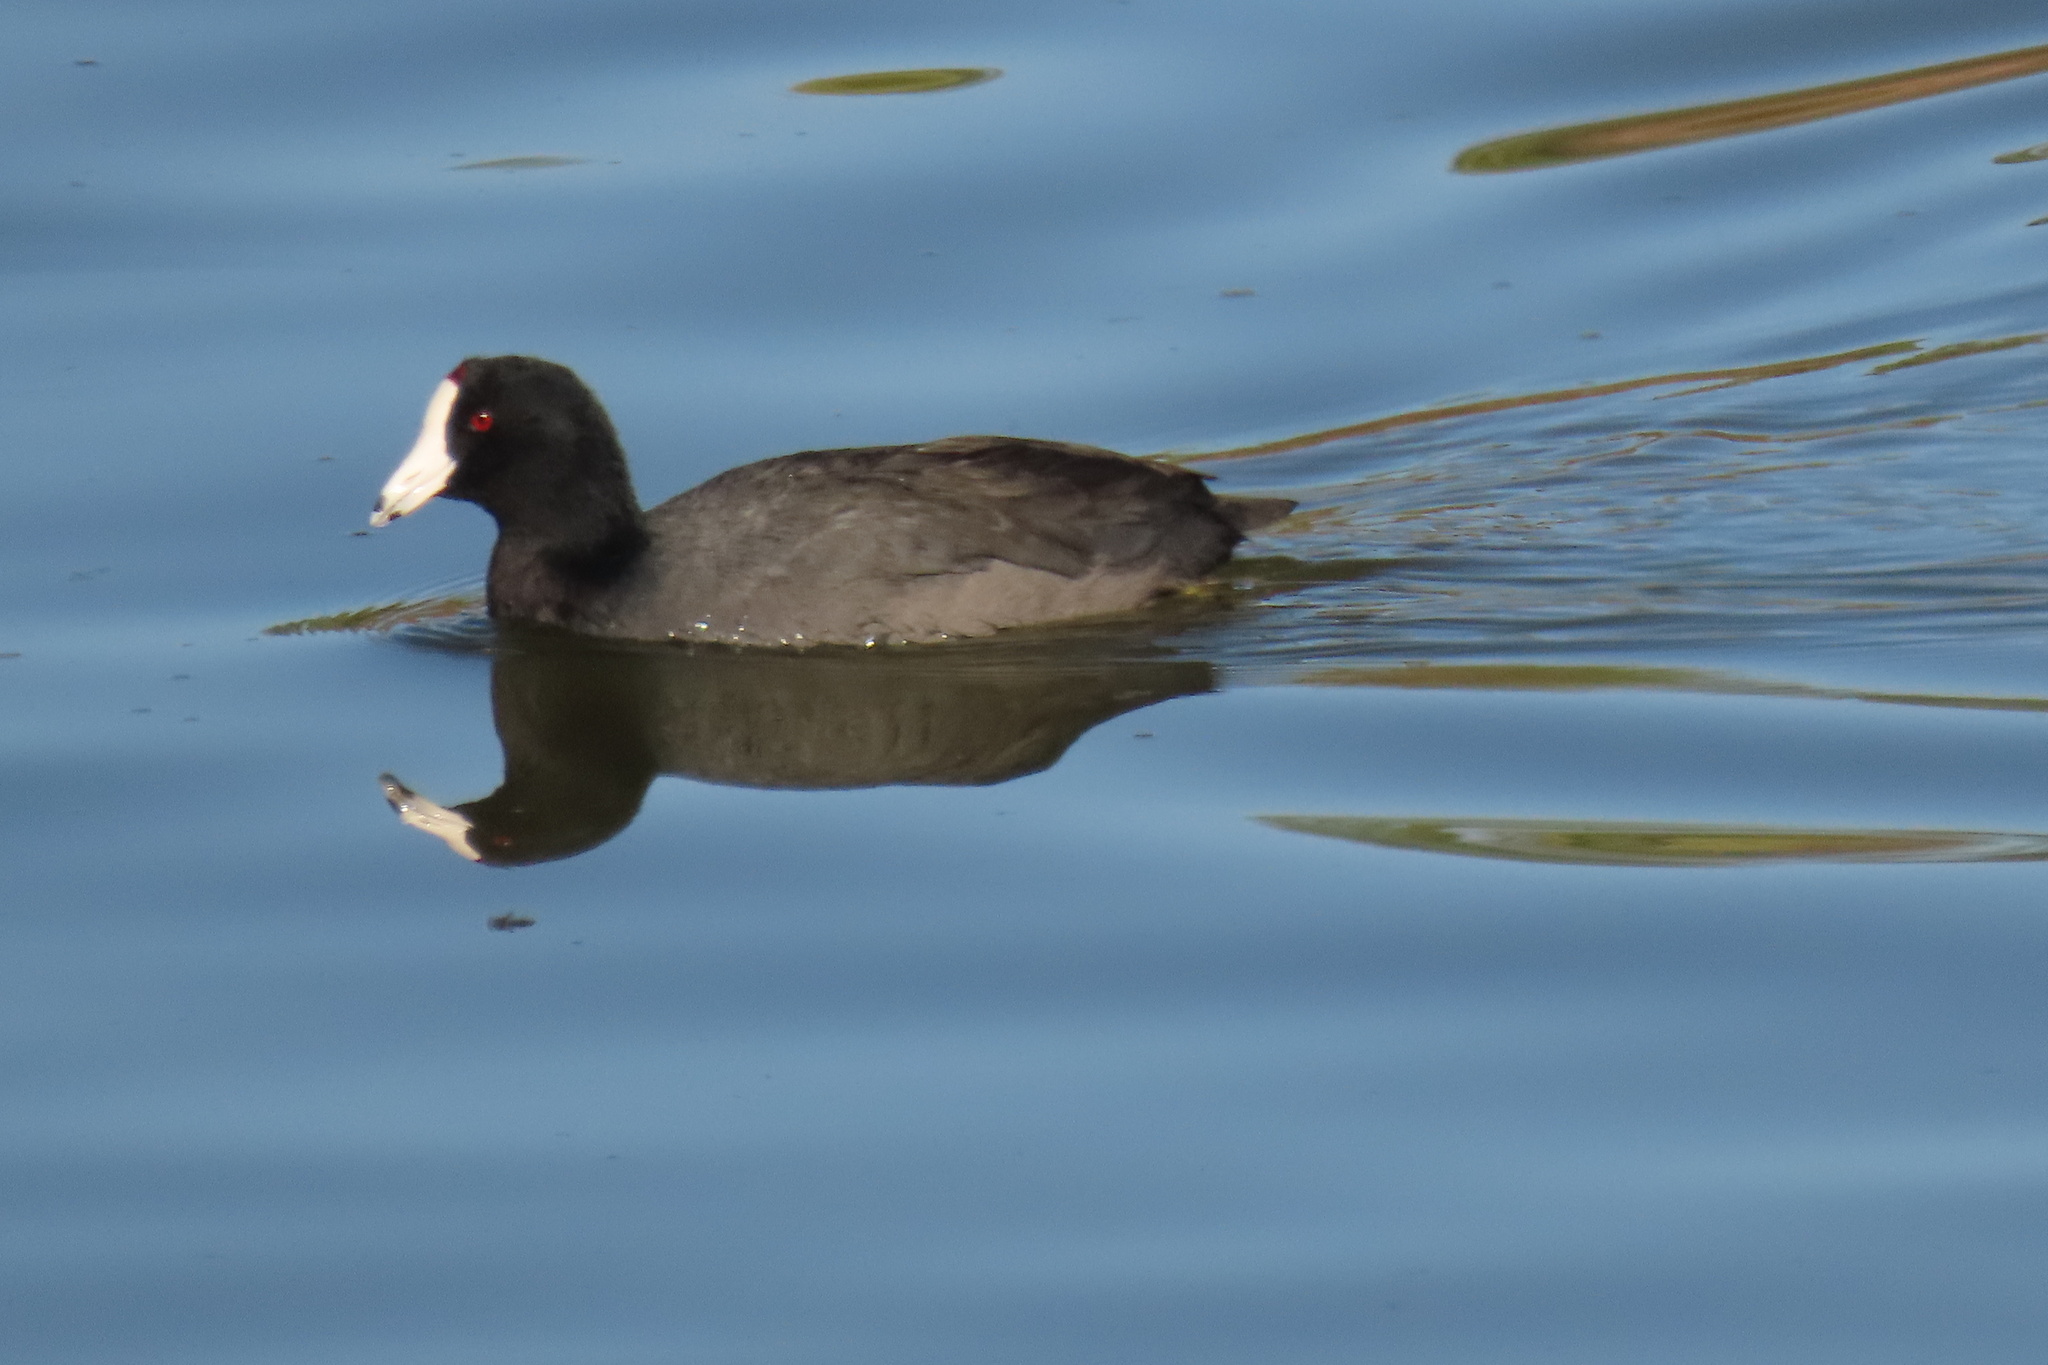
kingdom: Animalia
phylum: Chordata
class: Aves
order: Gruiformes
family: Rallidae
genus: Fulica
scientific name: Fulica americana
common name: American coot
